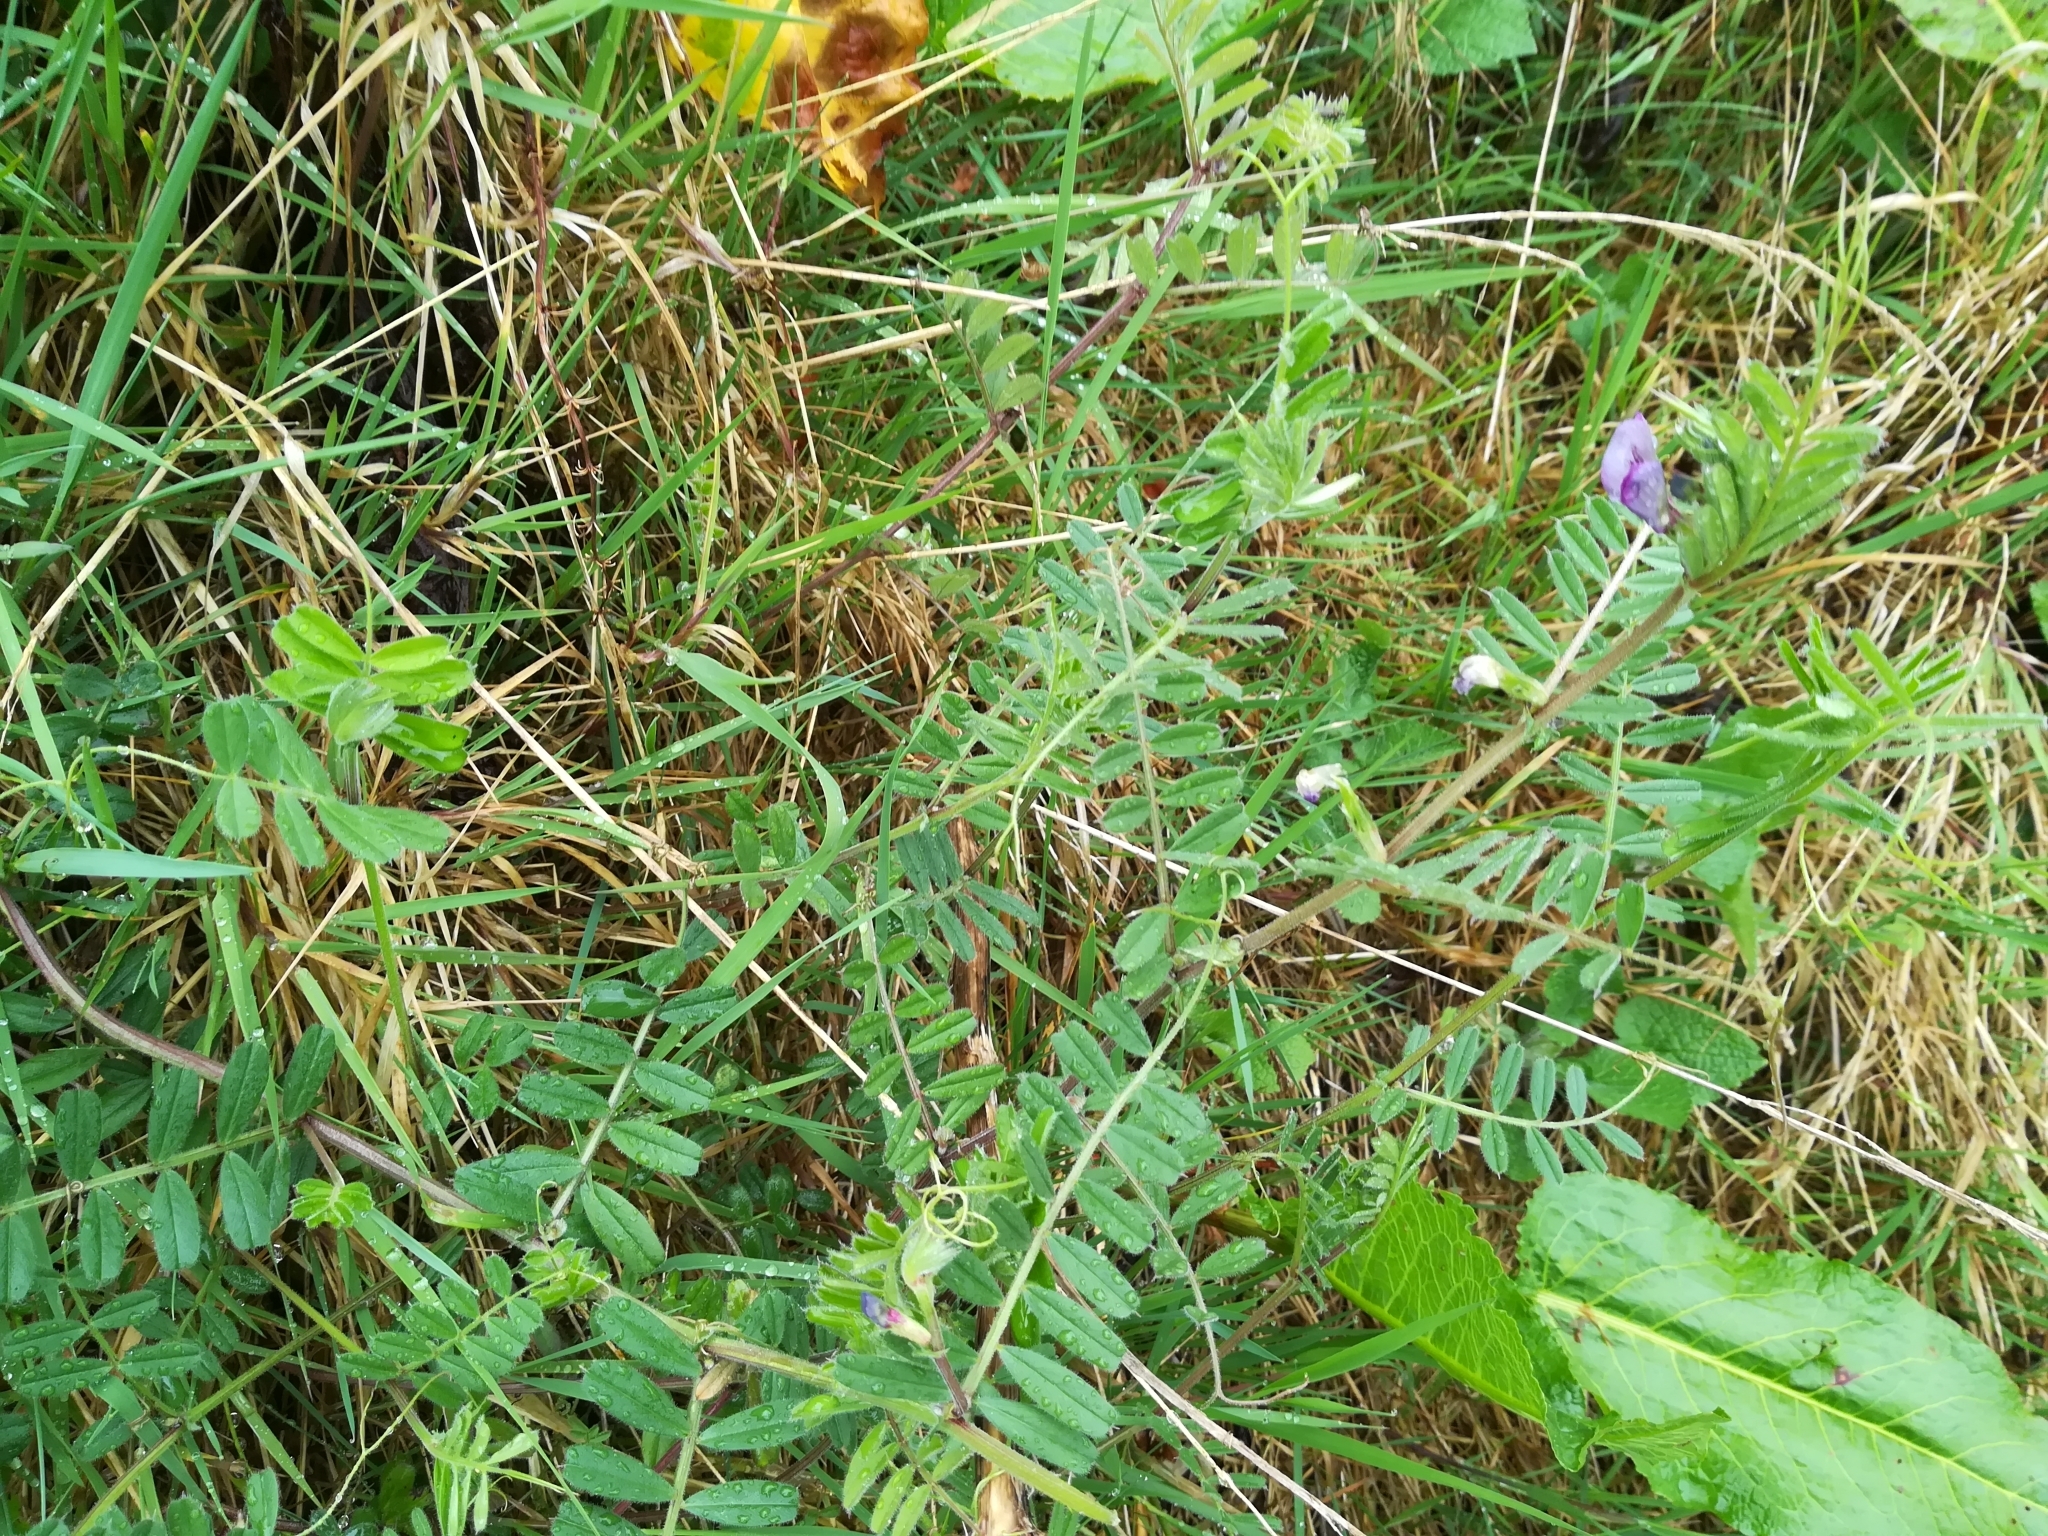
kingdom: Plantae
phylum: Tracheophyta
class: Magnoliopsida
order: Fabales
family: Fabaceae
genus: Vicia
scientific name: Vicia sativa
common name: Garden vetch
